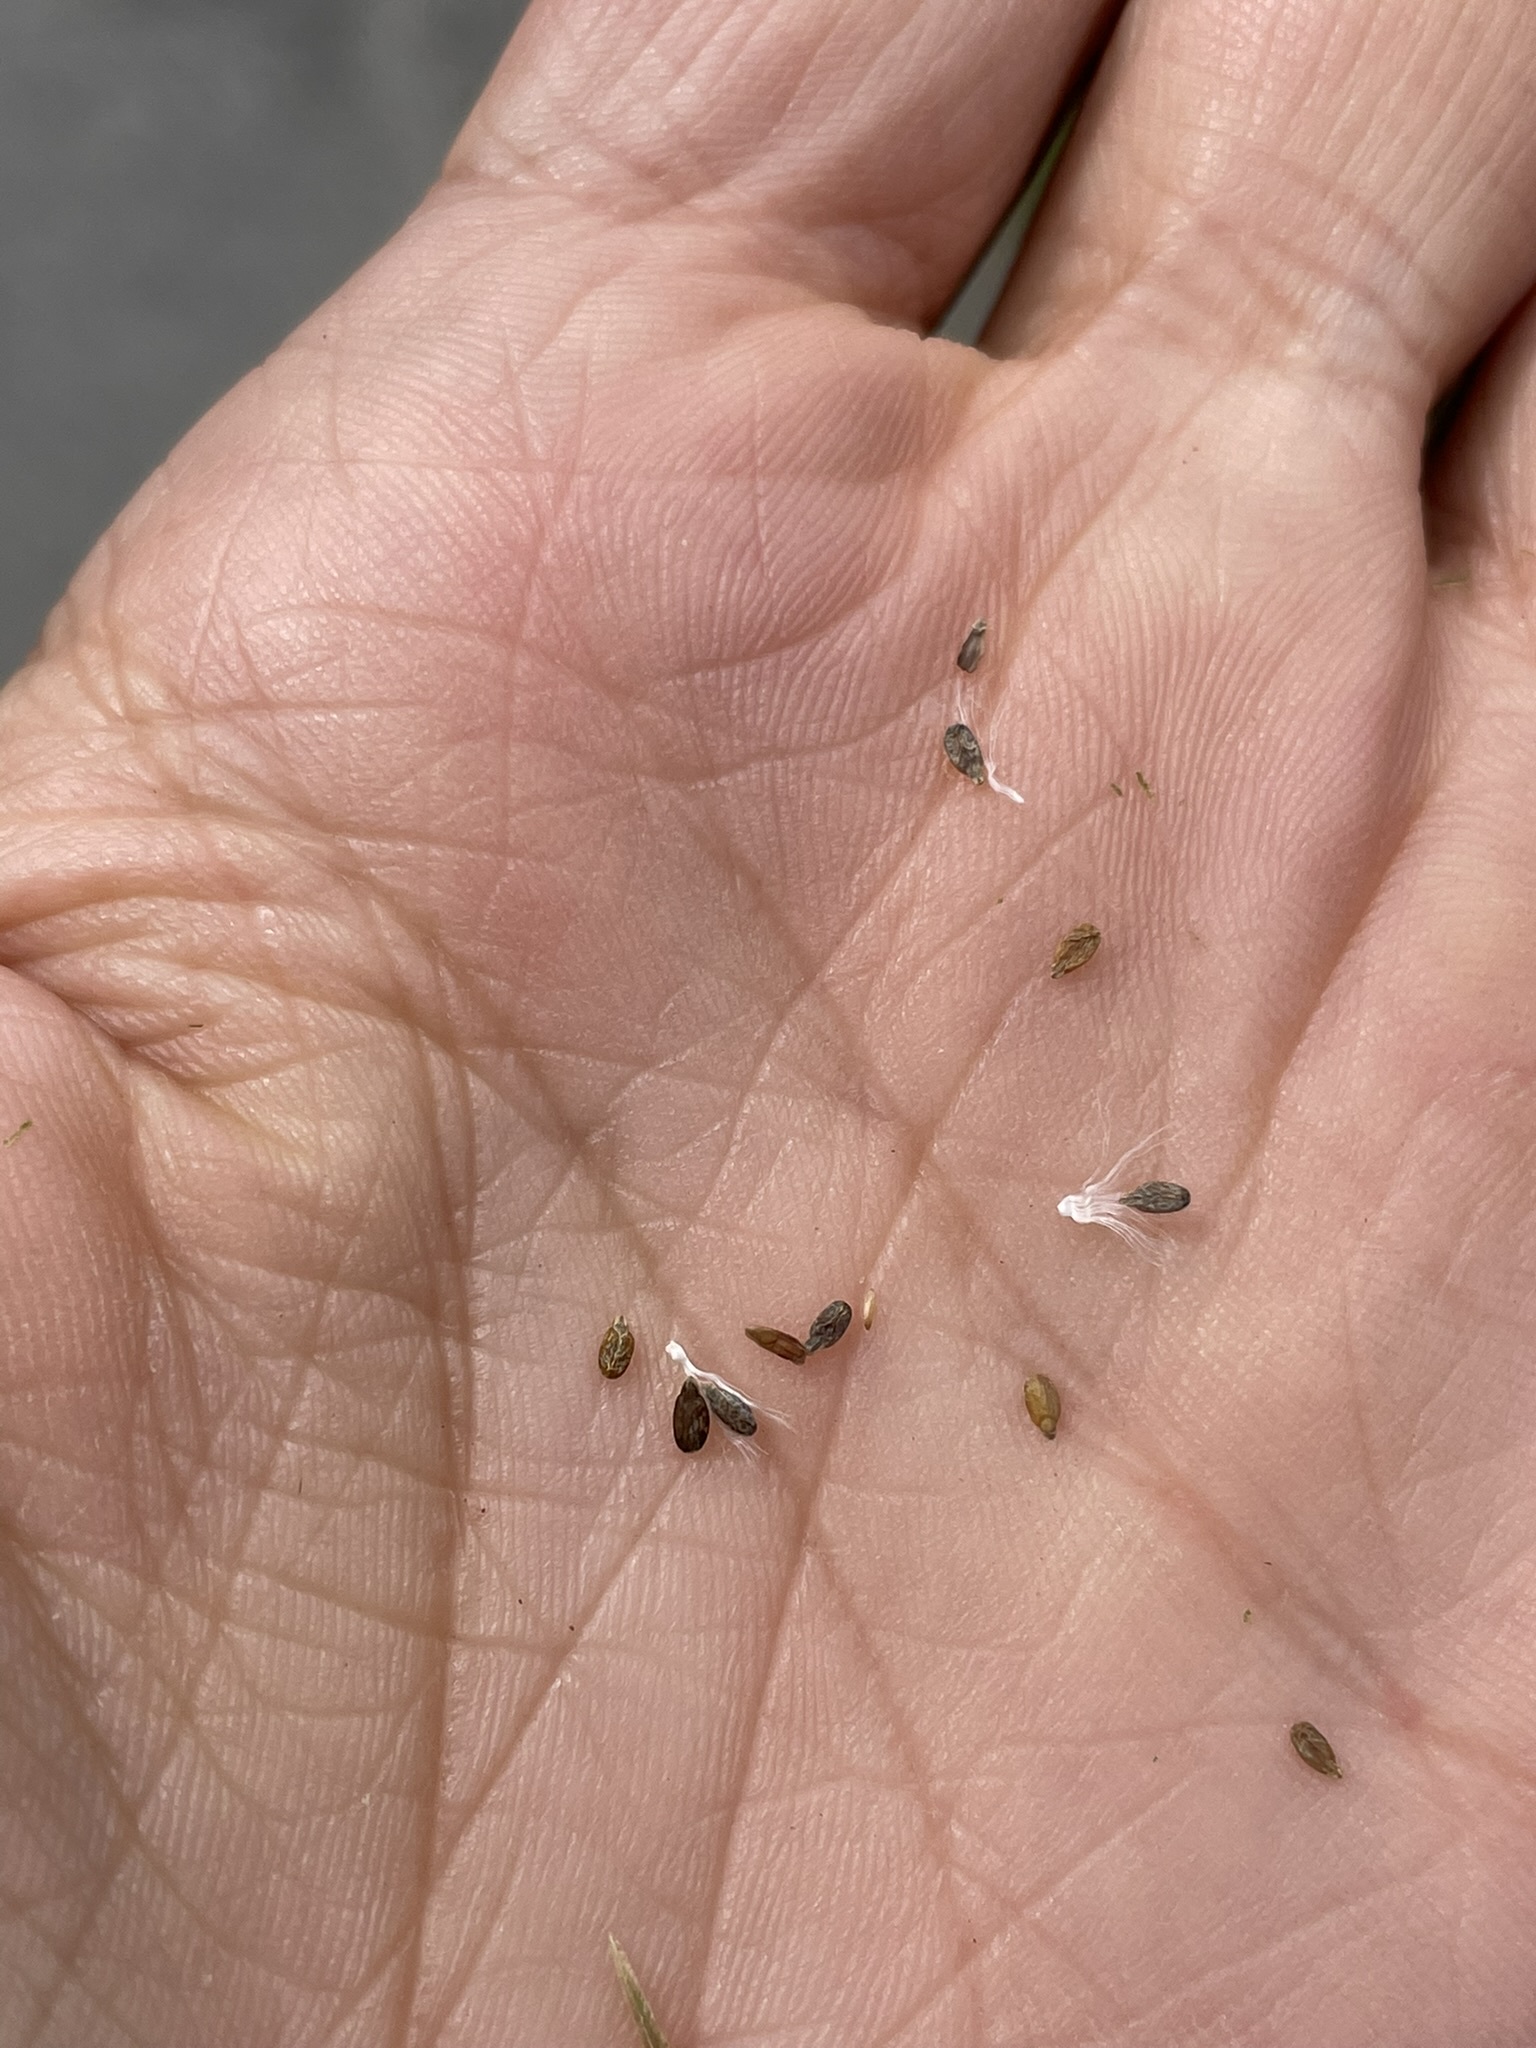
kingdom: Plantae
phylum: Tracheophyta
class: Magnoliopsida
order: Myrtales
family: Onagraceae
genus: Epilobium
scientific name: Epilobium brachycarpum
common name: Annual willowherb
